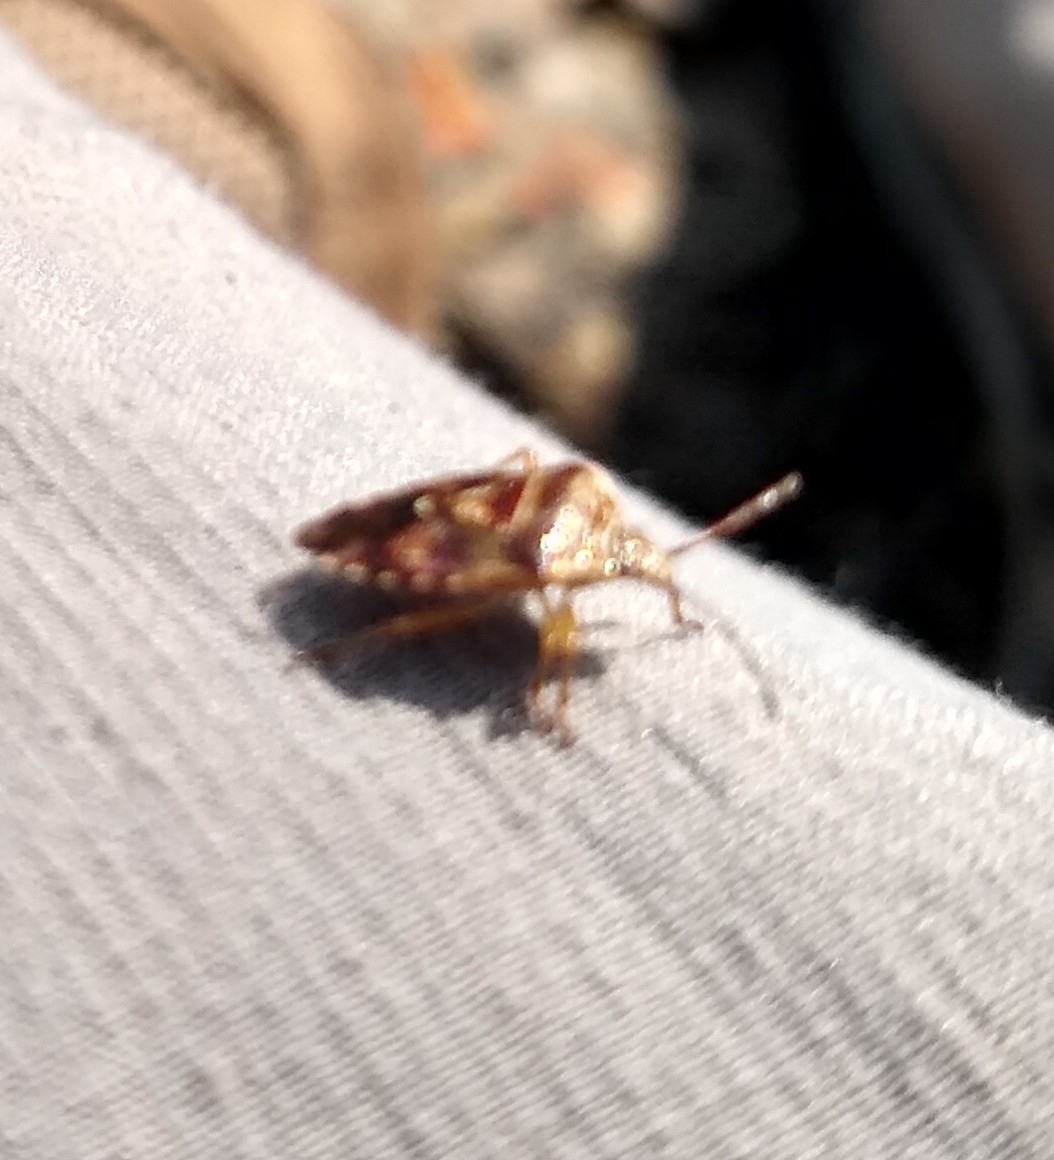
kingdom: Animalia
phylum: Arthropoda
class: Insecta
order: Hemiptera
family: Acanthosomatidae
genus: Elasmucha
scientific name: Elasmucha lateralis
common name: Shield bug
